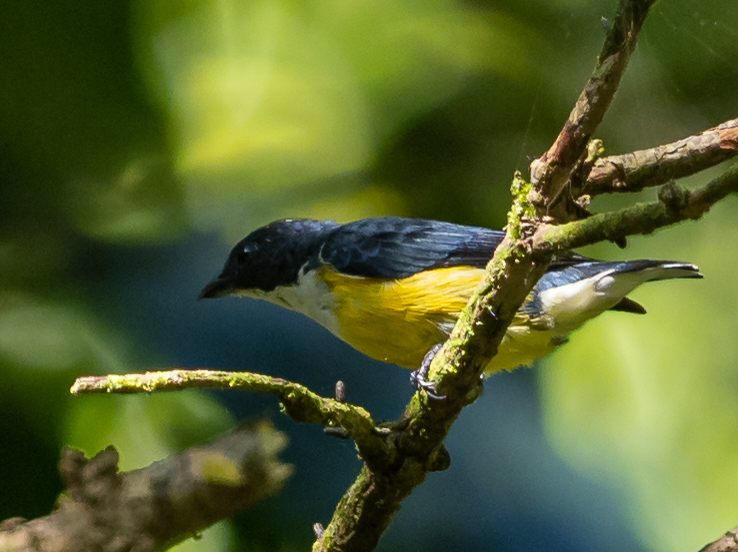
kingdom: Animalia
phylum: Chordata
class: Aves
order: Passeriformes
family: Dicaeidae
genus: Dicaeum
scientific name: Dicaeum vincens
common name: Legge's flowerpecker
